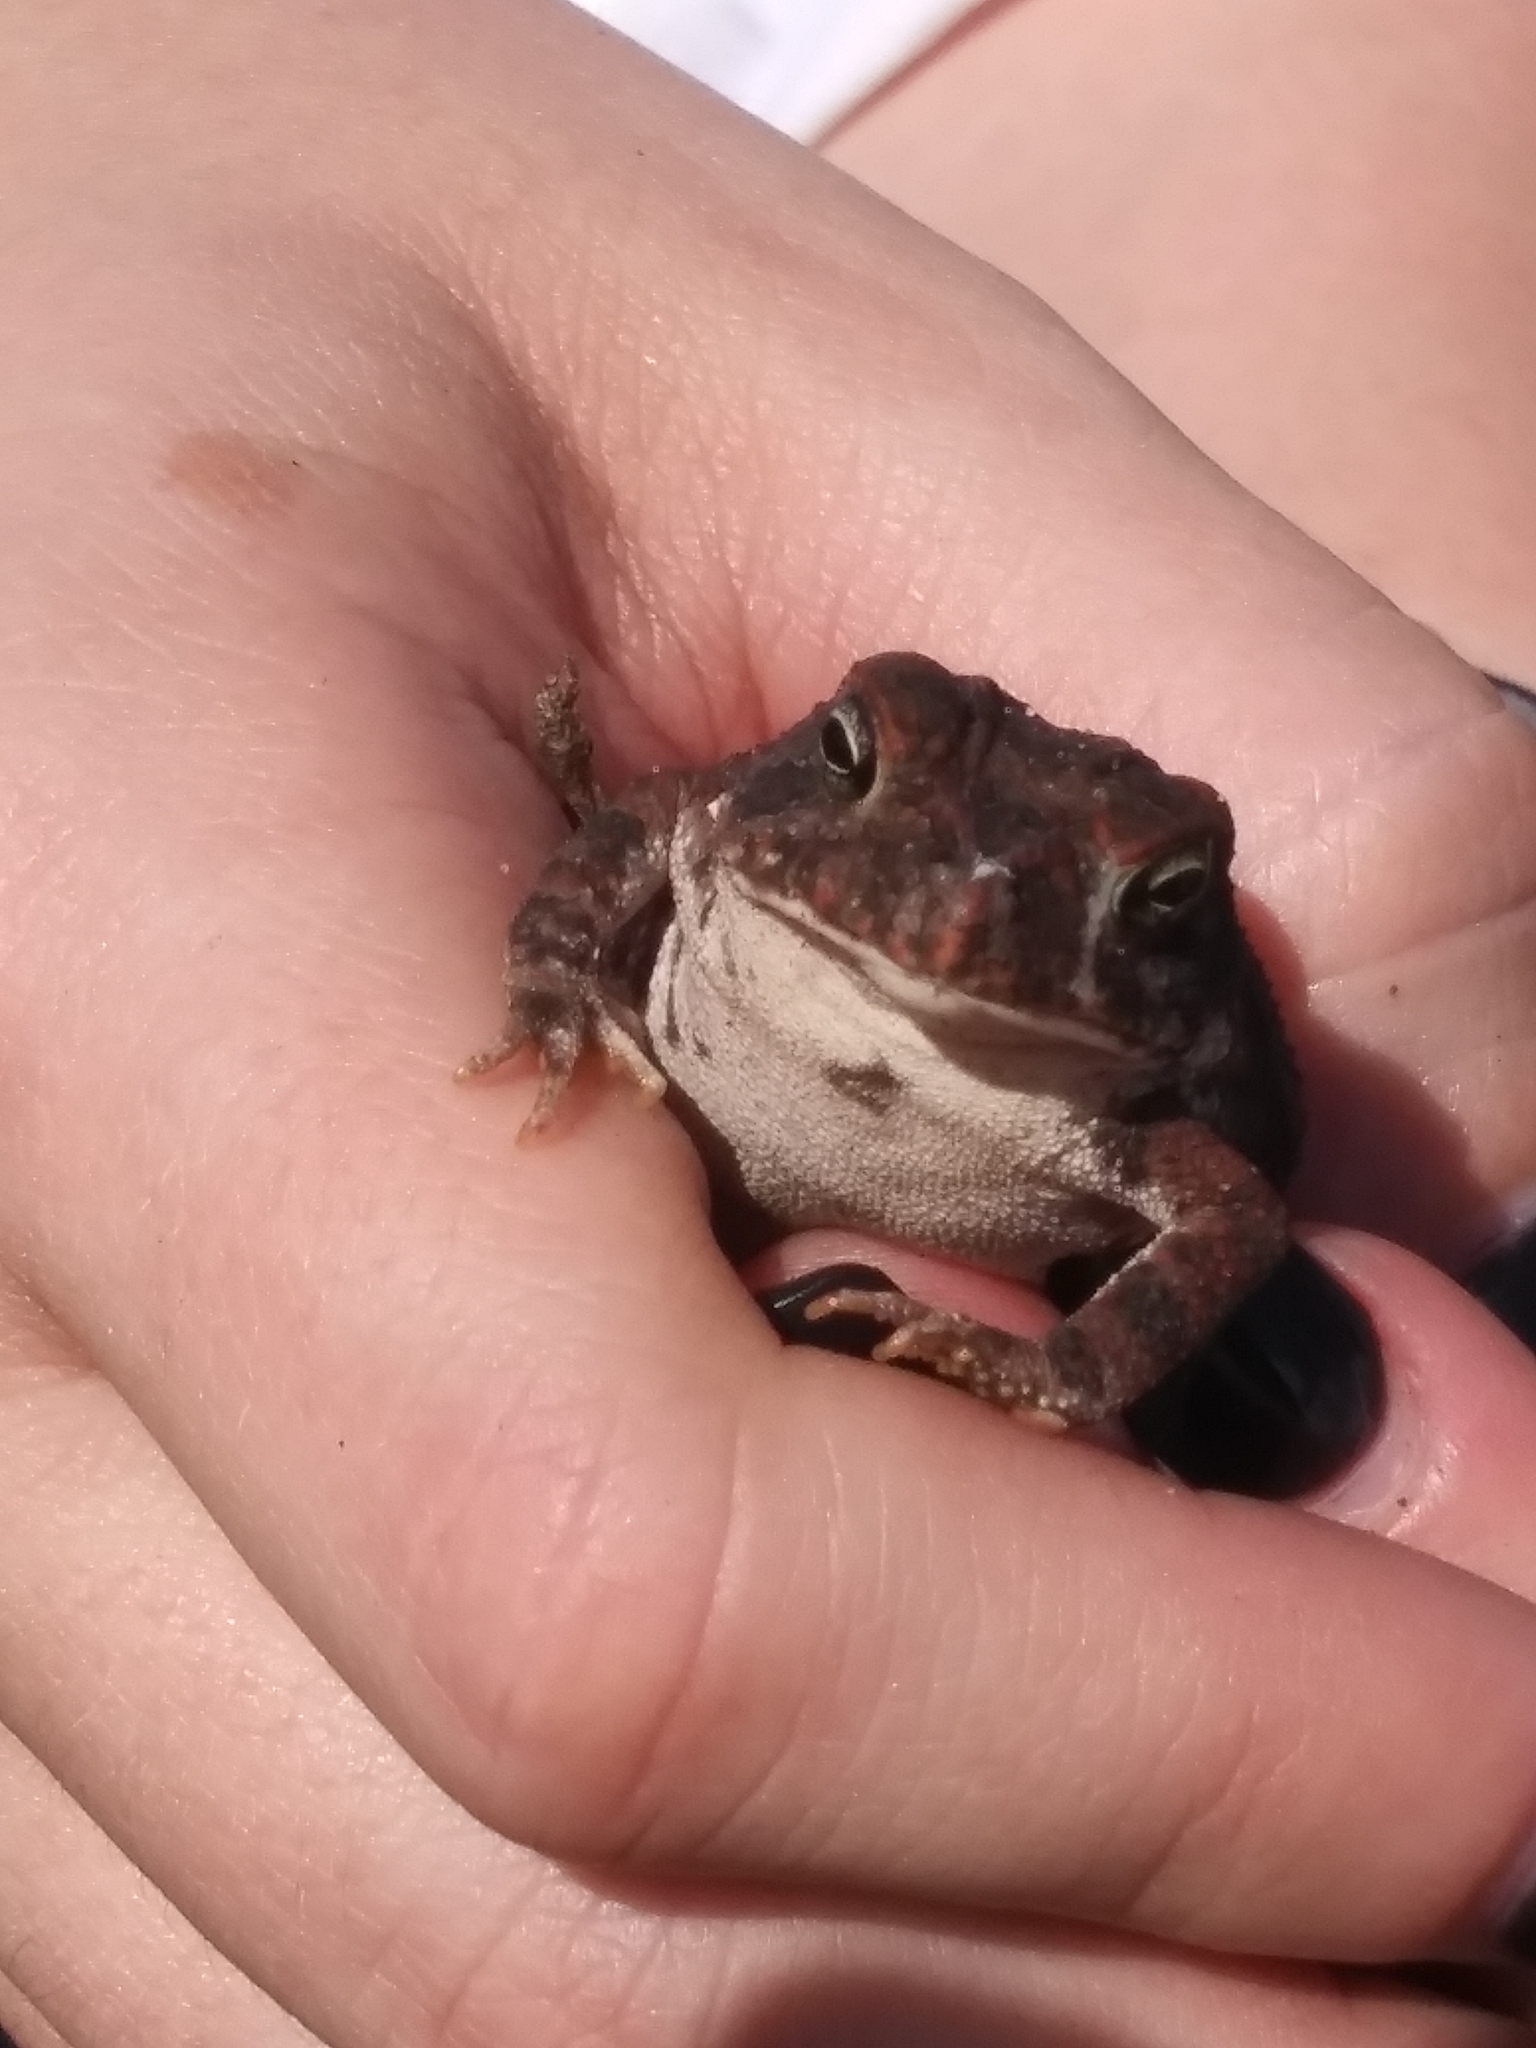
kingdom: Animalia
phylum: Chordata
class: Amphibia
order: Anura
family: Bufonidae
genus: Anaxyrus
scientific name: Anaxyrus terrestris
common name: Southern toad
